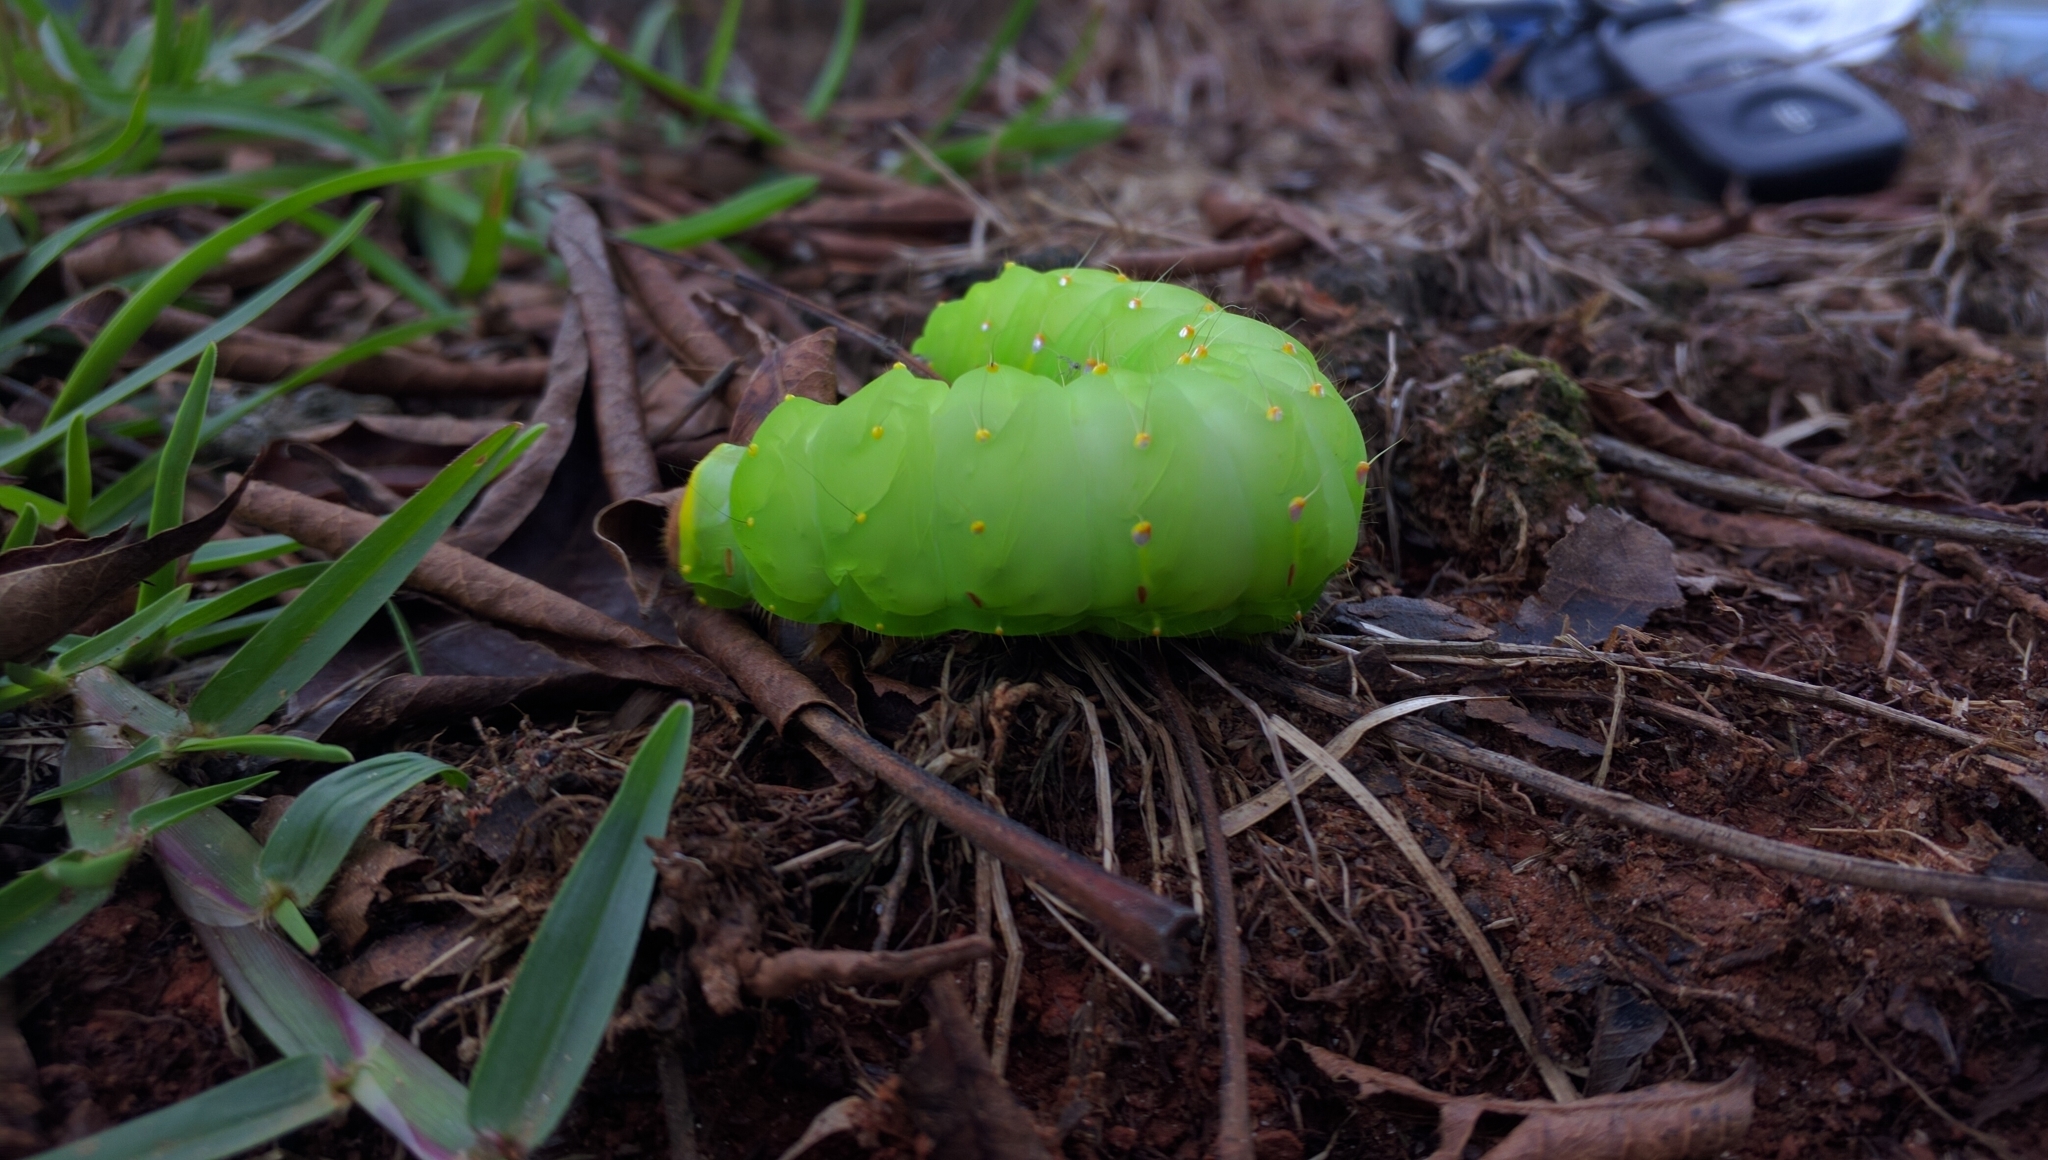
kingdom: Animalia
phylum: Arthropoda
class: Insecta
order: Lepidoptera
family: Saturniidae
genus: Antheraea
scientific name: Antheraea polyphemus
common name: Polyphemus moth
